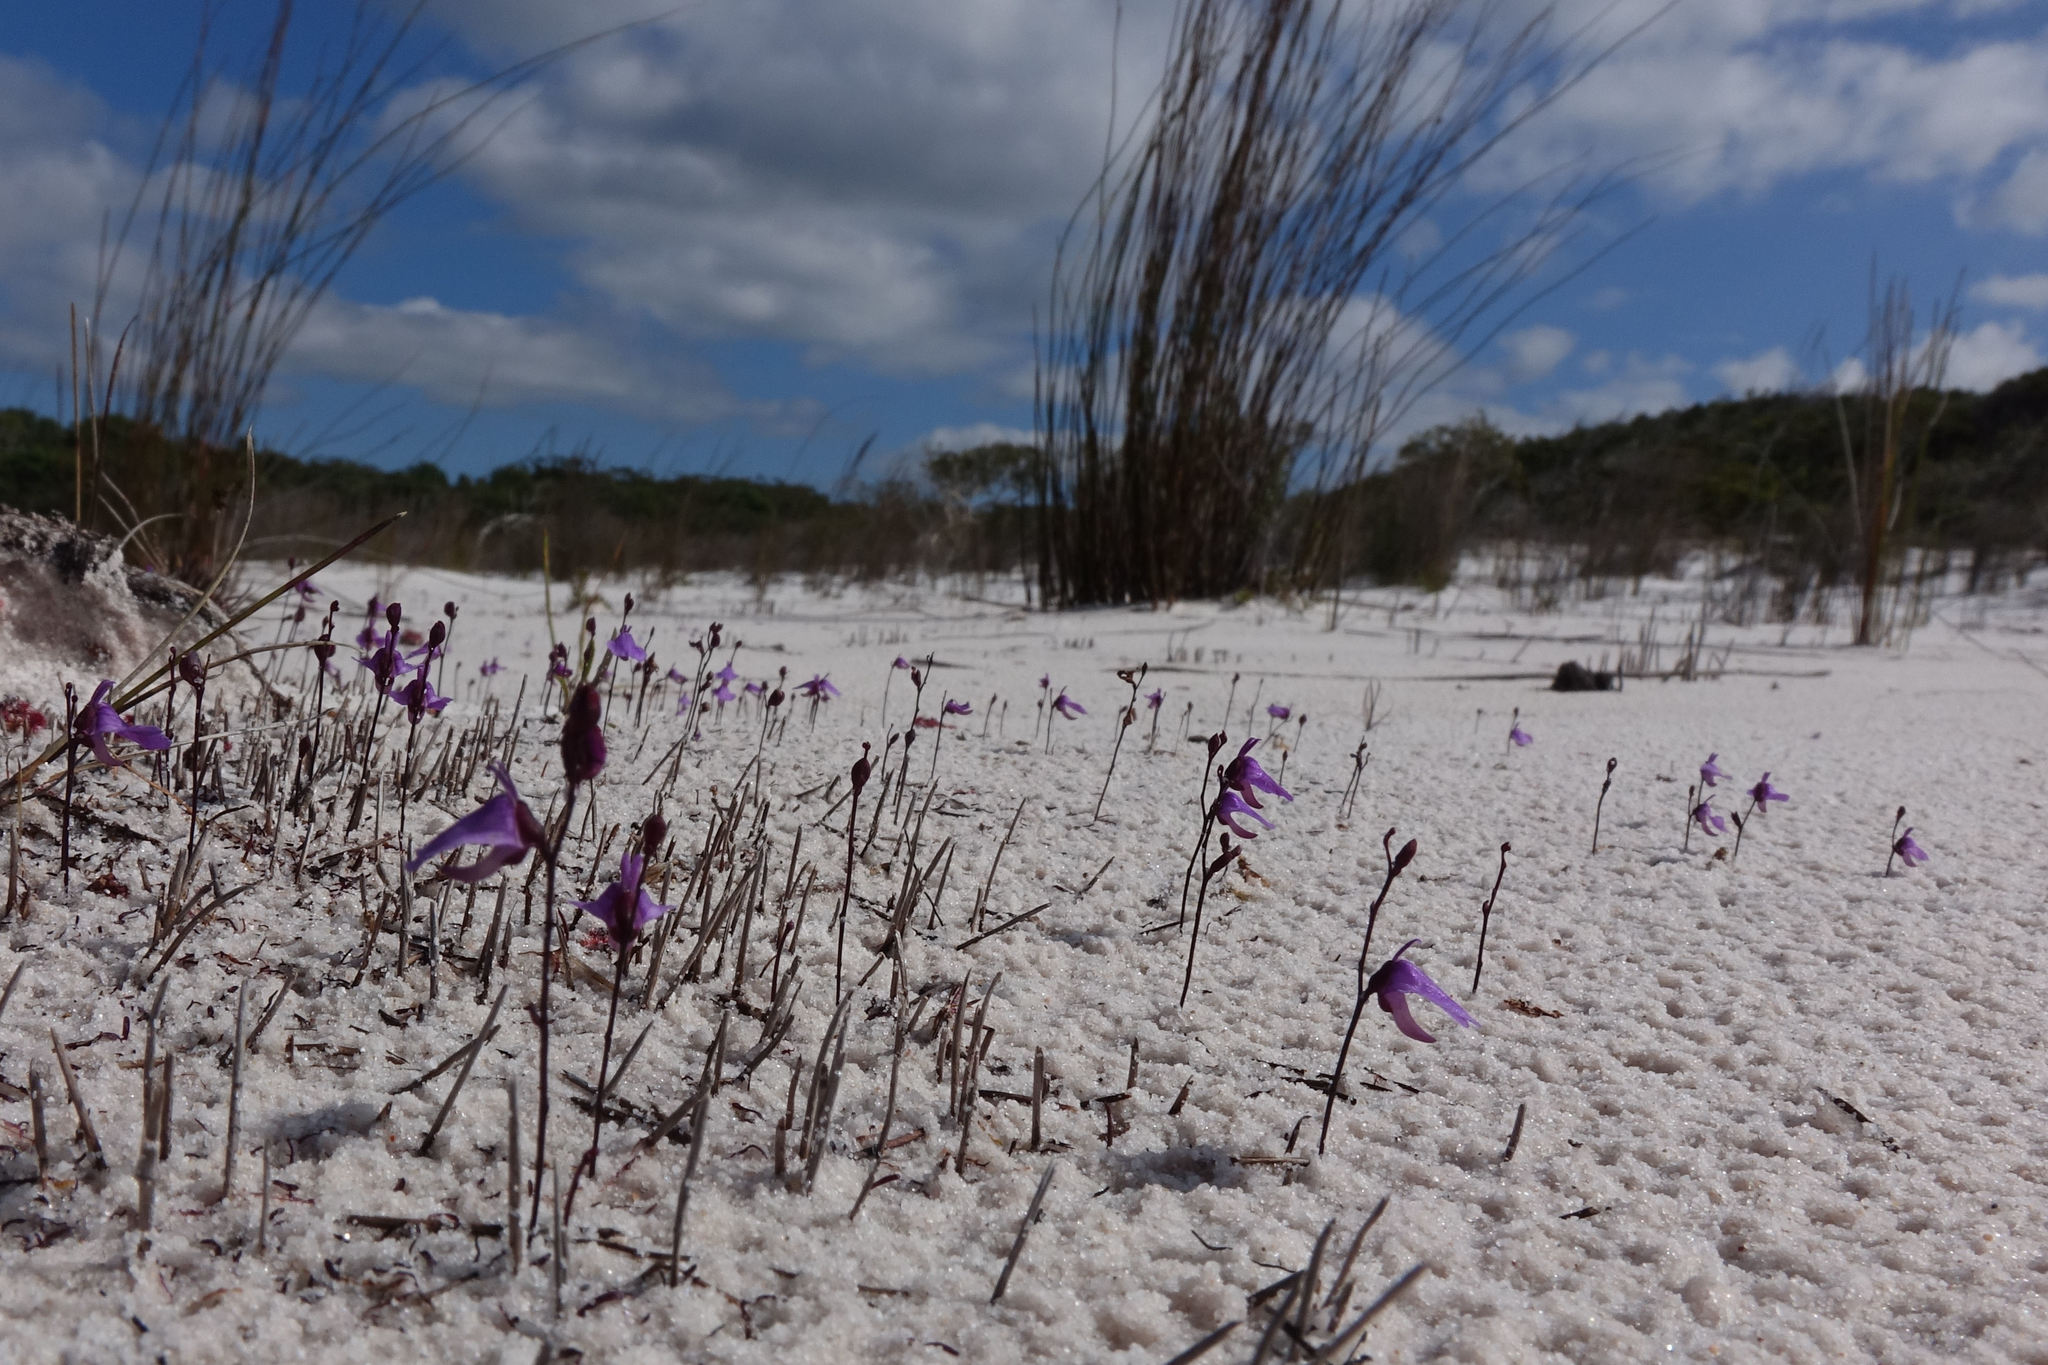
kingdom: Plantae
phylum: Tracheophyta
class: Magnoliopsida
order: Lamiales
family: Lentibulariaceae
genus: Utricularia
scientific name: Utricularia lateriflora
